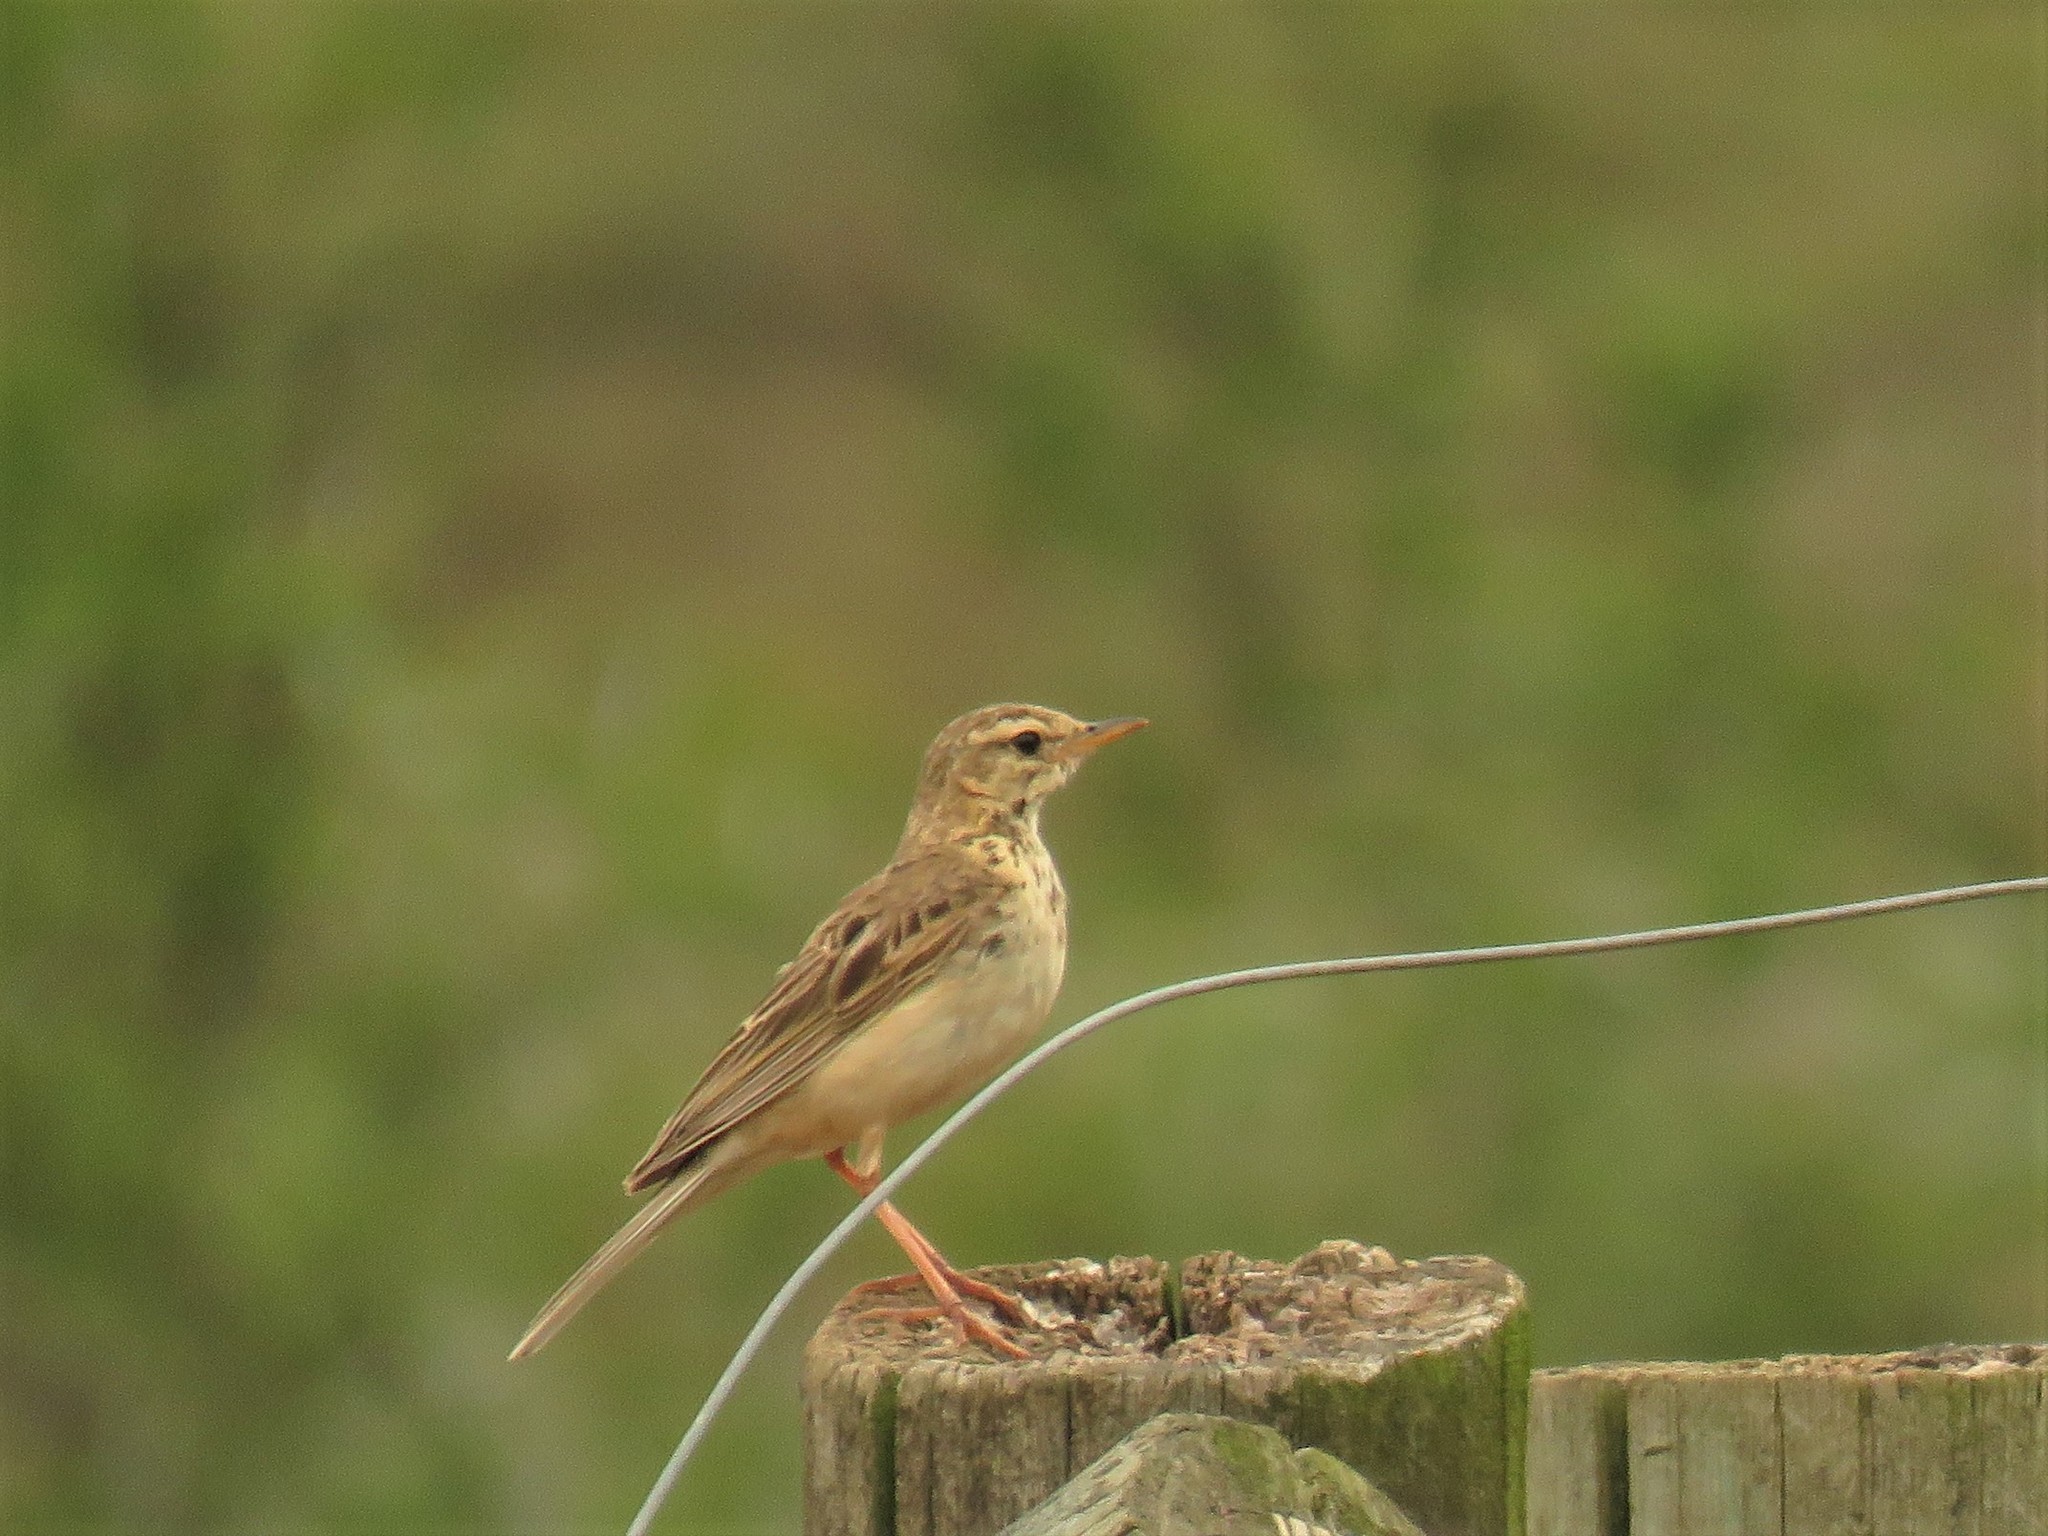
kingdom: Animalia
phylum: Chordata
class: Aves
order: Passeriformes
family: Motacillidae
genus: Anthus
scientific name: Anthus cinnamomeus
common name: African pipit
